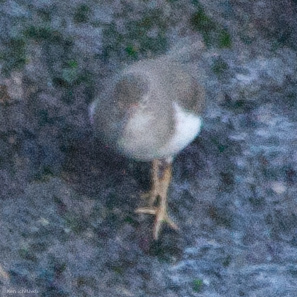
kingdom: Animalia
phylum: Chordata
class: Aves
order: Charadriiformes
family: Scolopacidae
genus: Actitis
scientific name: Actitis macularius
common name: Spotted sandpiper
